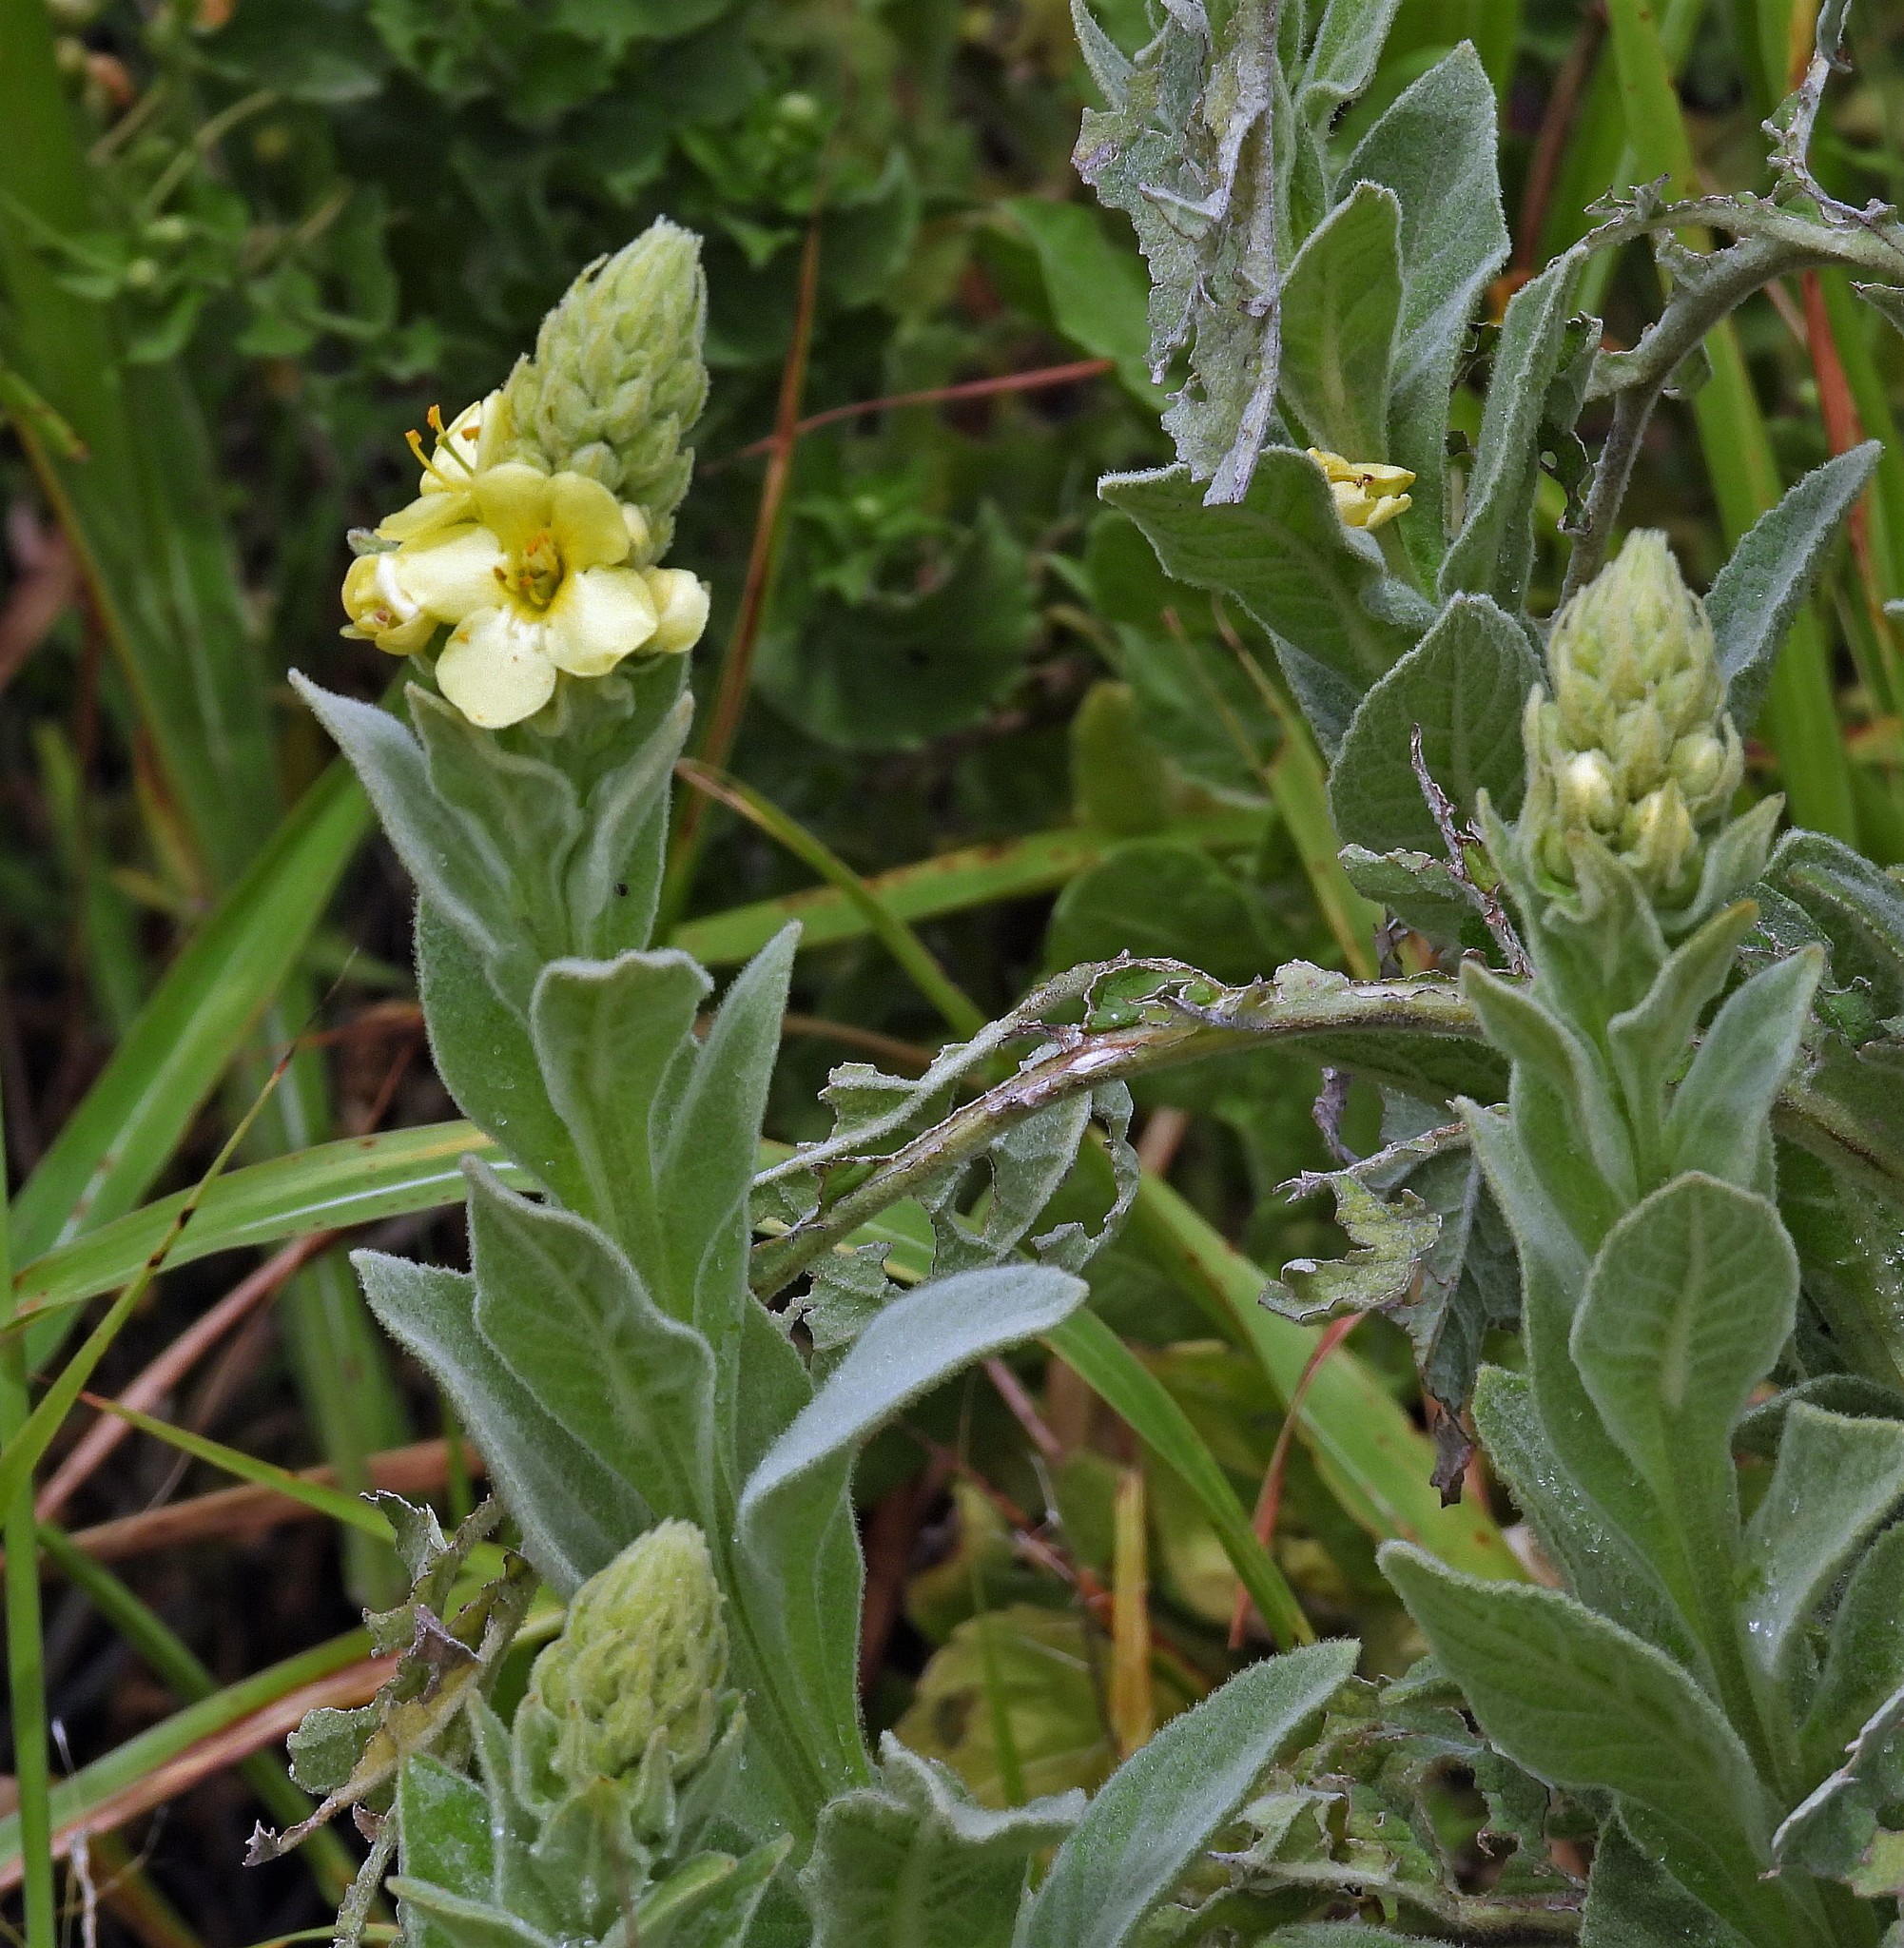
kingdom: Plantae
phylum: Tracheophyta
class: Magnoliopsida
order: Lamiales
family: Scrophulariaceae
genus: Verbascum
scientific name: Verbascum thapsus
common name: Common mullein
